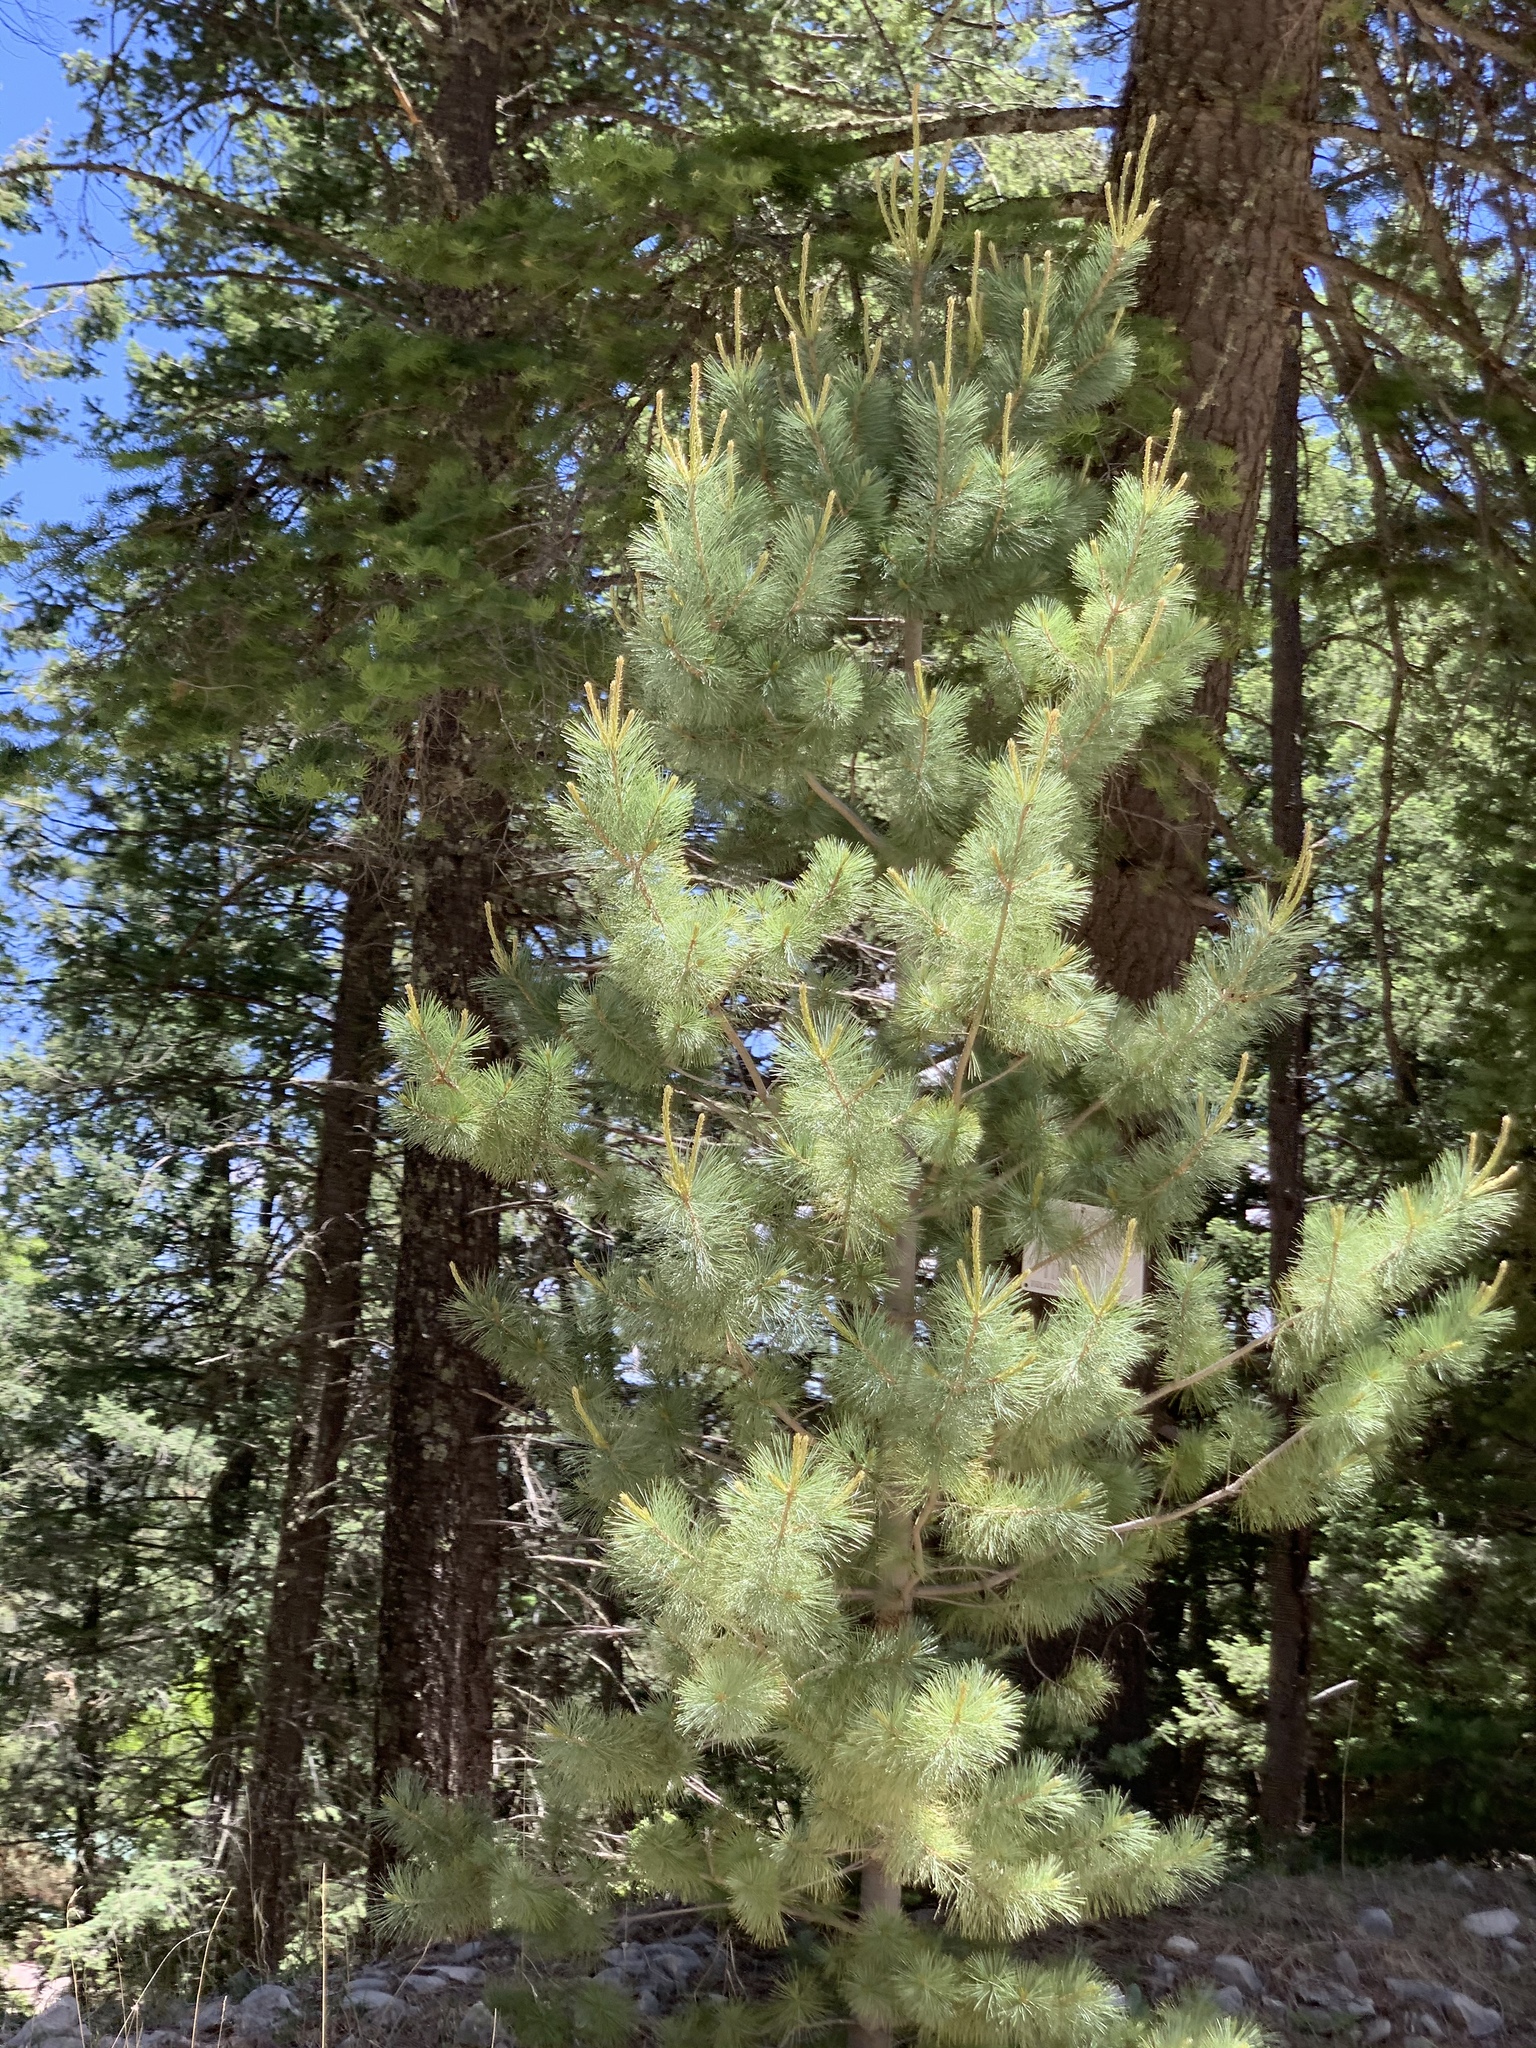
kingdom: Plantae
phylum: Tracheophyta
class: Pinopsida
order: Pinales
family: Pinaceae
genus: Pinus
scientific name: Pinus strobiformis
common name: Southwestern white pine
